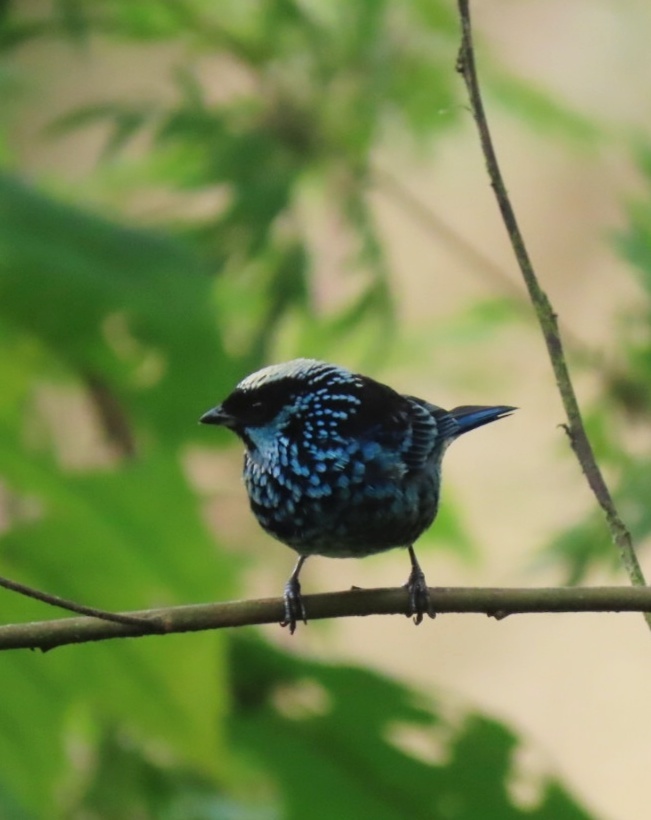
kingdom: Animalia
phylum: Chordata
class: Aves
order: Passeriformes
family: Thraupidae
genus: Tangara
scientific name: Tangara nigroviridis
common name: Beryl-spangled tanager
